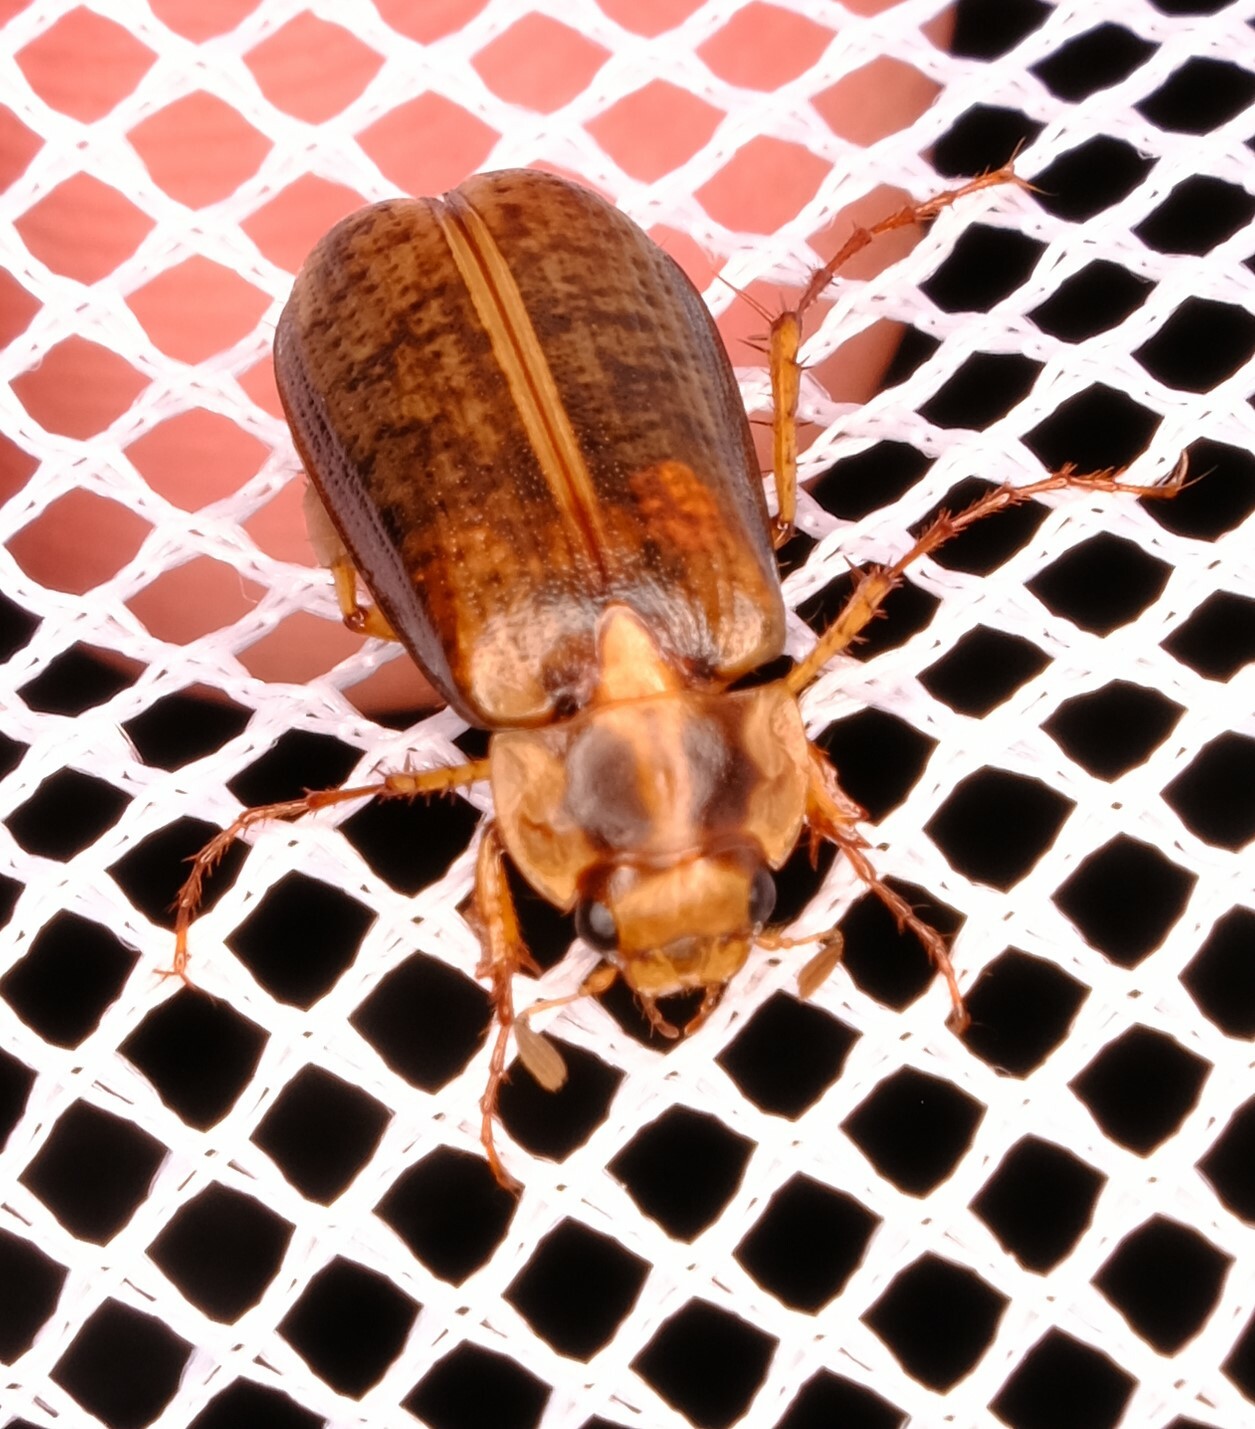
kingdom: Animalia
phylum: Arthropoda
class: Insecta
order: Coleoptera
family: Scarabaeidae
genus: Telura
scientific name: Telura alta
